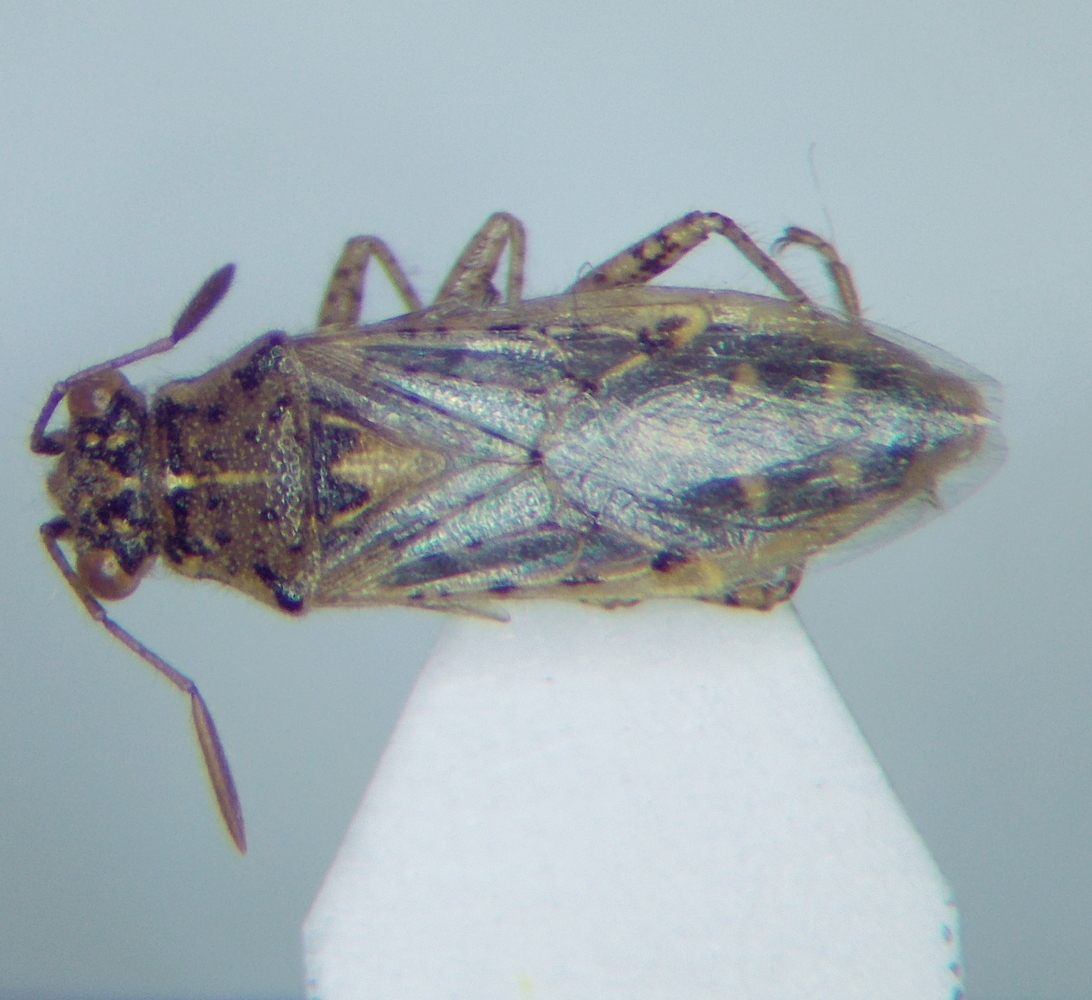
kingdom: Animalia
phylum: Arthropoda
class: Insecta
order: Hemiptera
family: Rhopalidae
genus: Brachycarenus
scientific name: Brachycarenus tigrinus
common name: Scentless plant bug
